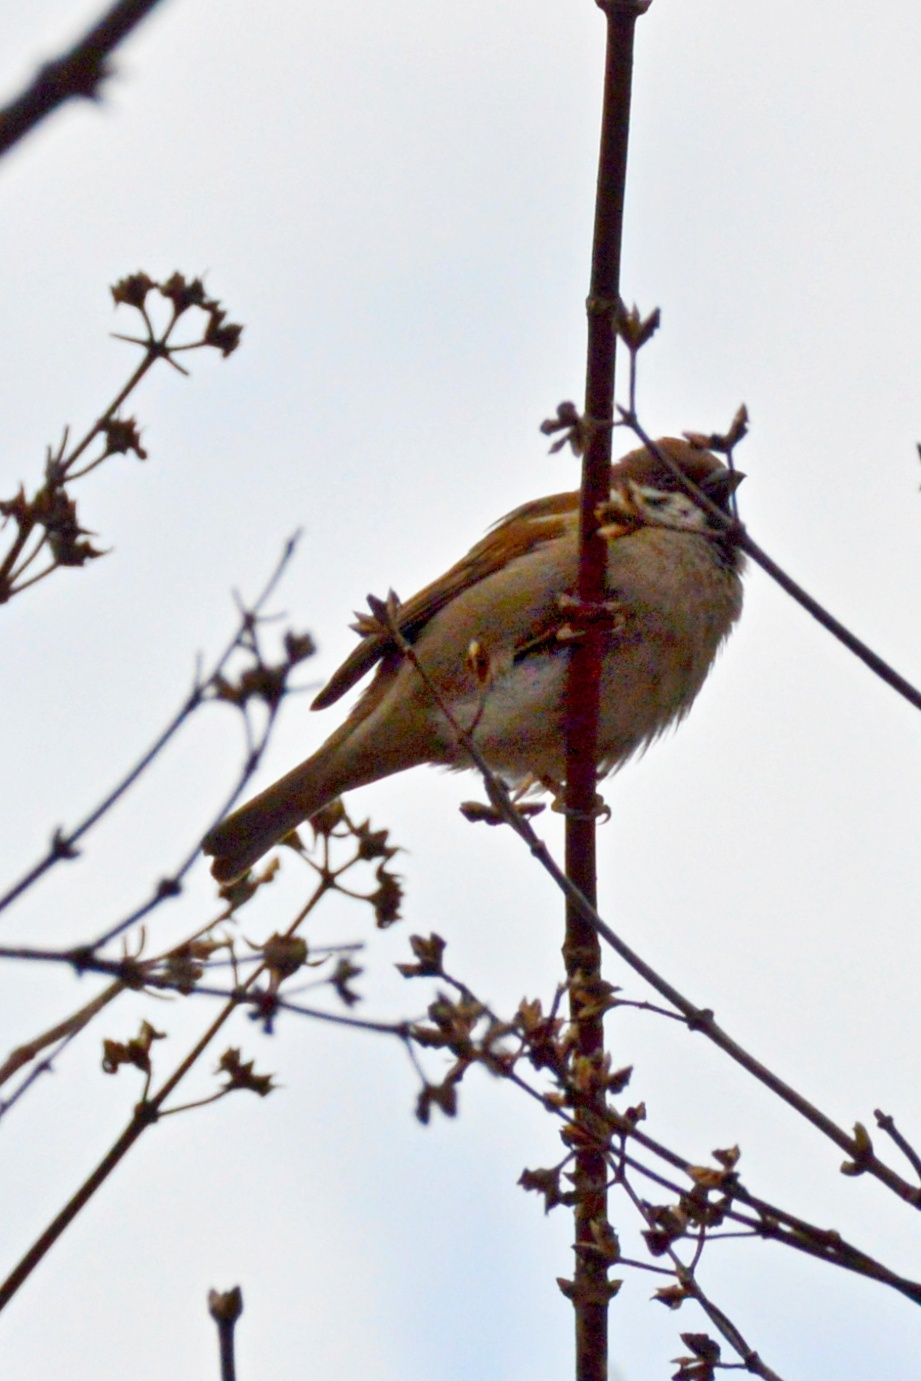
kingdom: Animalia
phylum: Chordata
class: Aves
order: Passeriformes
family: Passeridae
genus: Passer
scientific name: Passer montanus
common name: Eurasian tree sparrow
